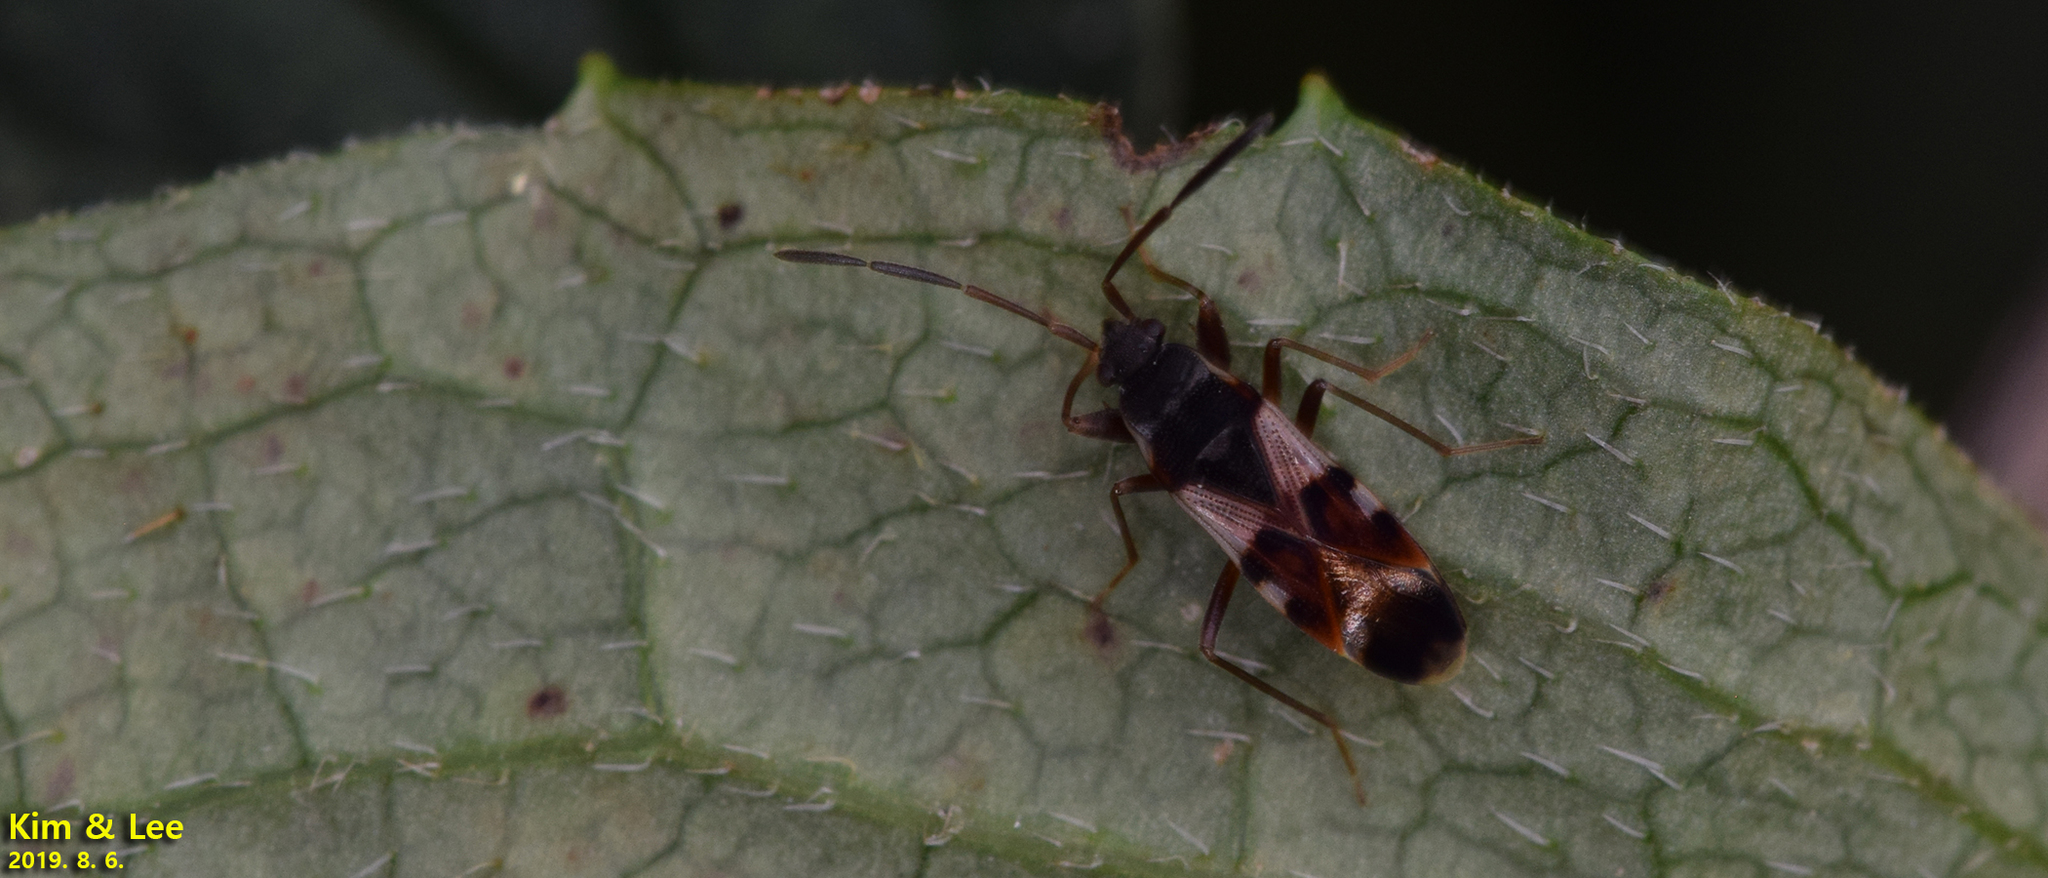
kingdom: Animalia
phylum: Arthropoda
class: Insecta
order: Hemiptera
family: Rhyparochromidae
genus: Paradieuches
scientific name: Paradieuches dissimilis
